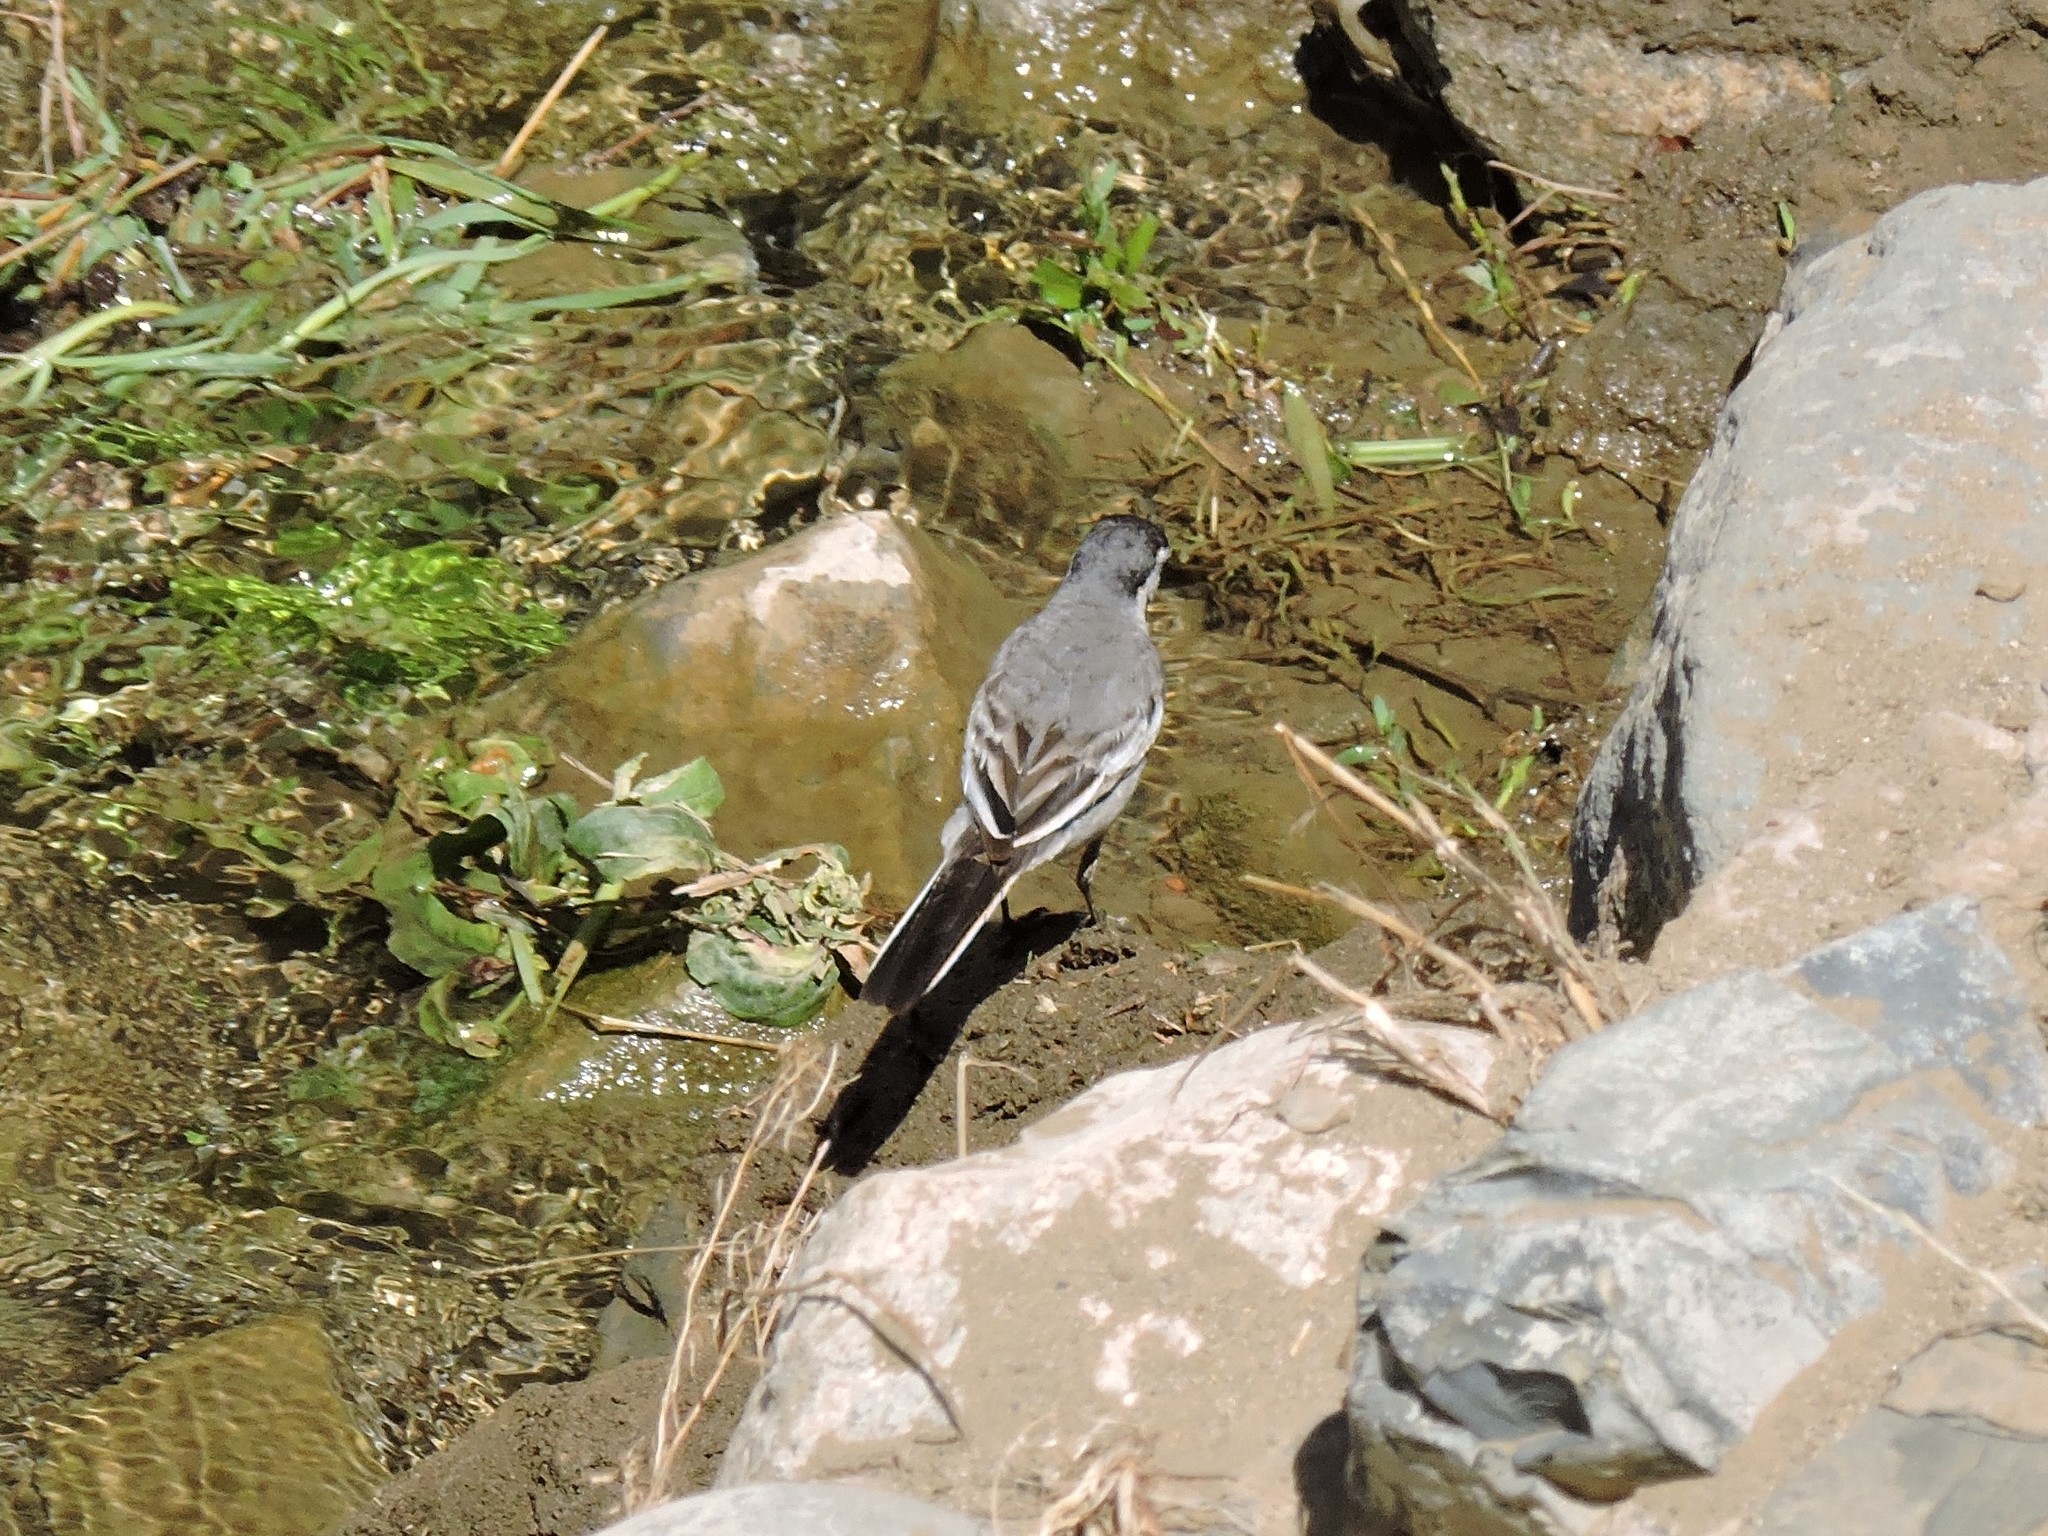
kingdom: Animalia
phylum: Chordata
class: Aves
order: Passeriformes
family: Motacillidae
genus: Motacilla
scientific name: Motacilla alba
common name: White wagtail
